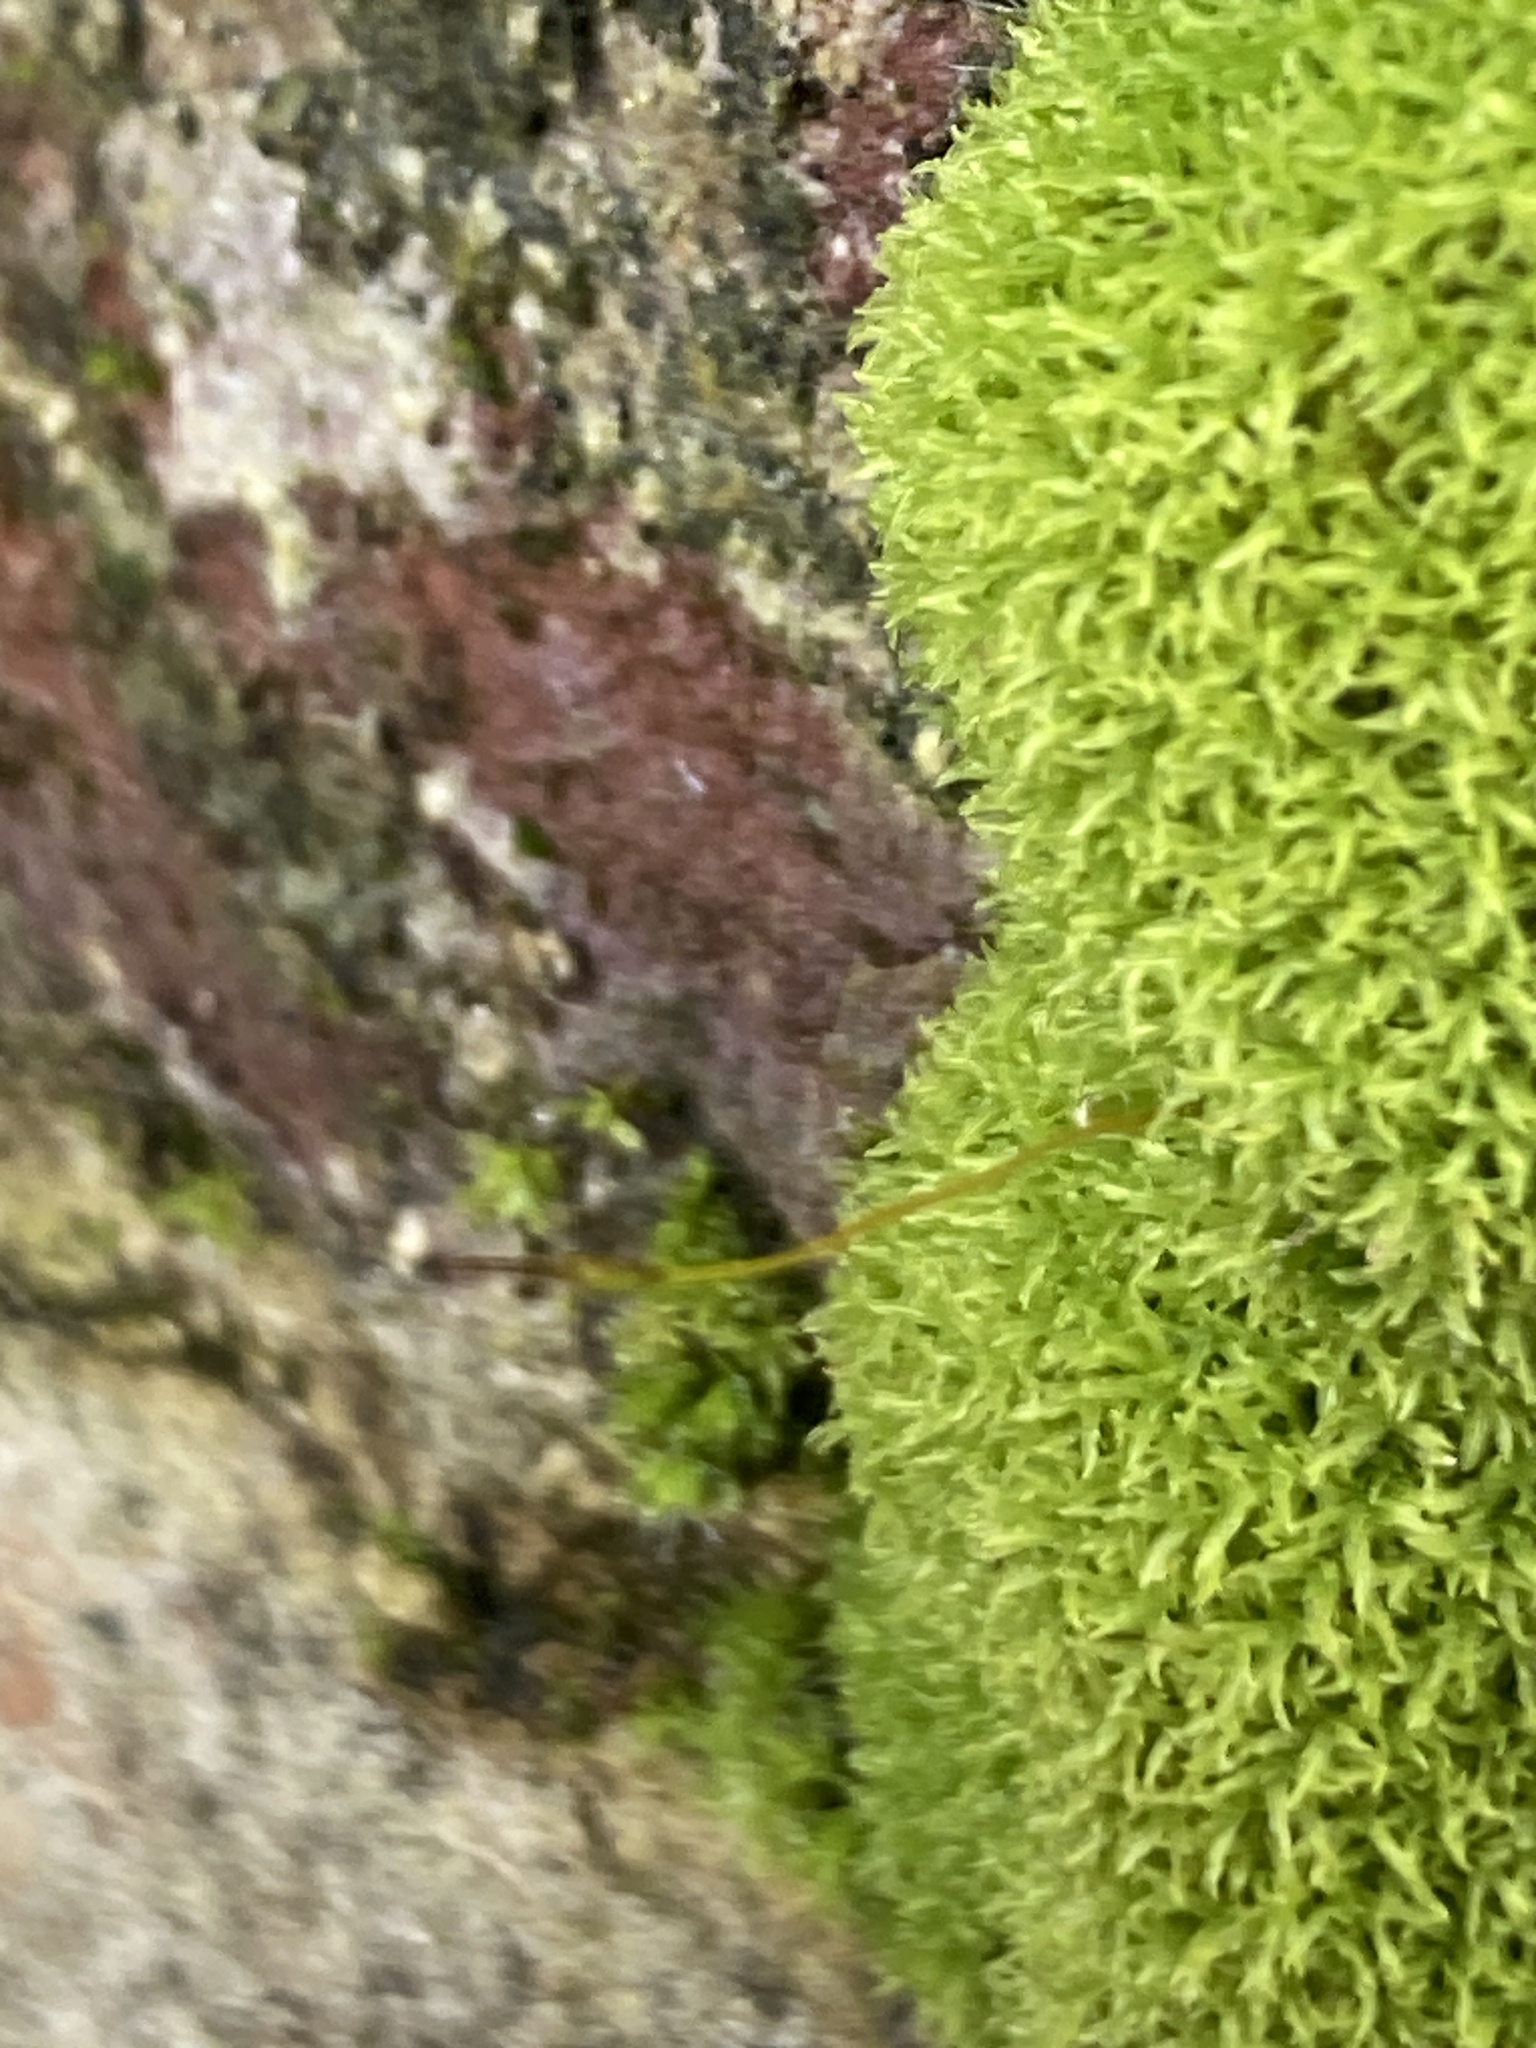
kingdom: Plantae
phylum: Bryophyta
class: Bryopsida
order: Pottiales
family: Pottiaceae
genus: Streblotrichum
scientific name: Streblotrichum commutatum
